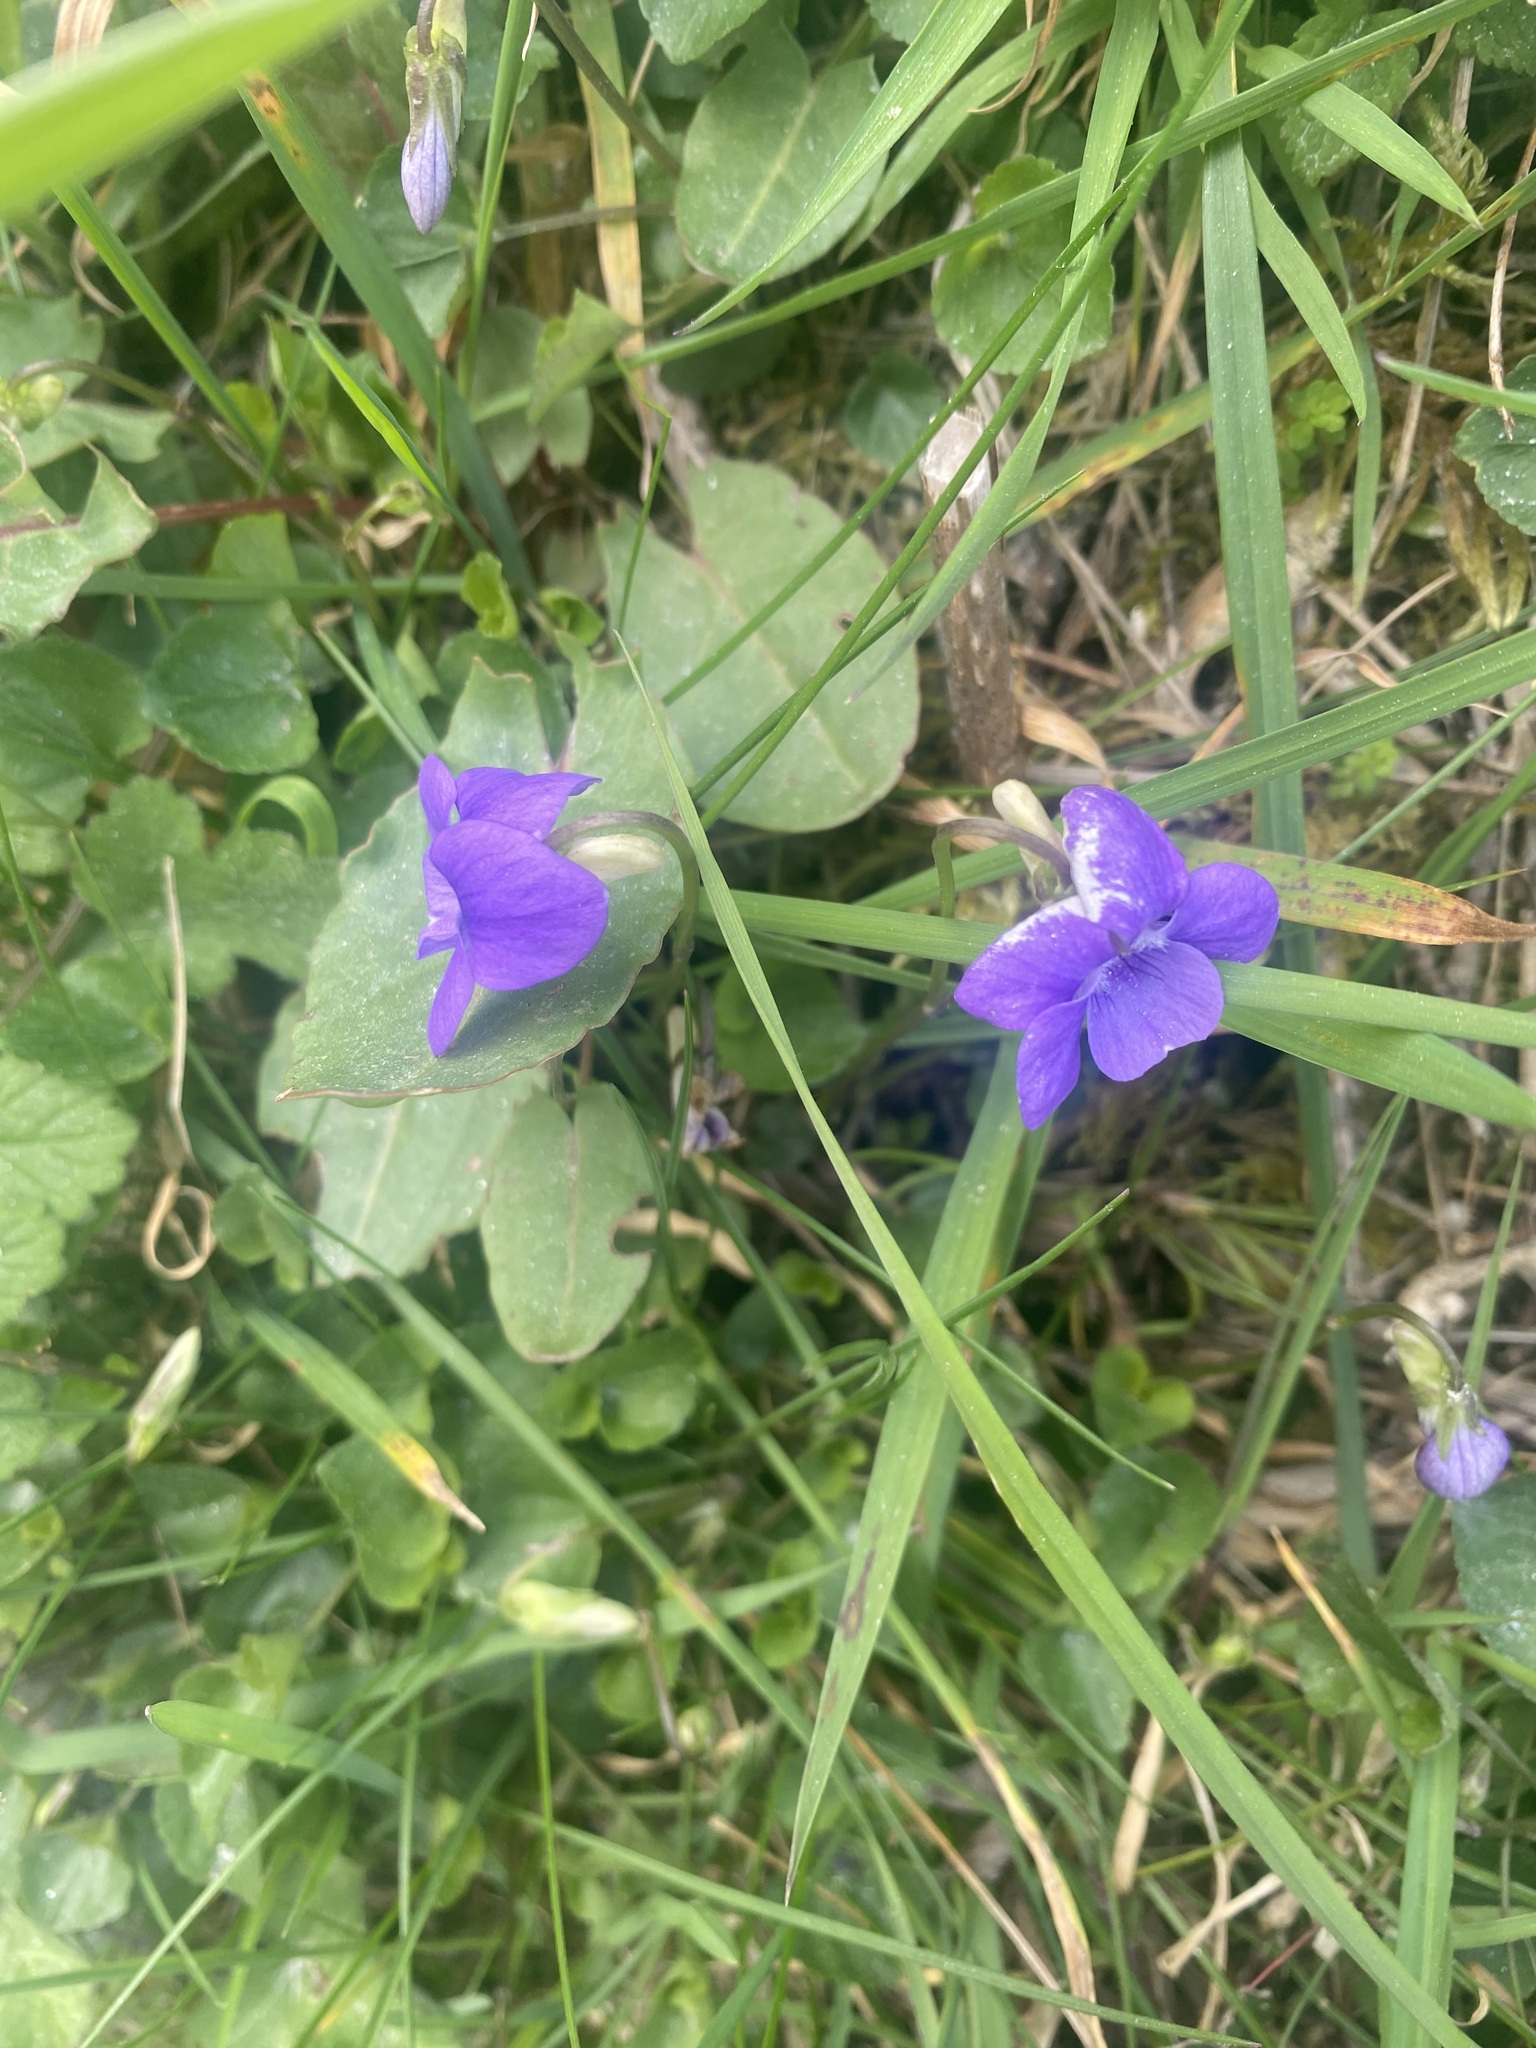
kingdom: Plantae
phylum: Tracheophyta
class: Magnoliopsida
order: Malpighiales
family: Violaceae
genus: Viola
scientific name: Viola riviniana
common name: Common dog-violet
